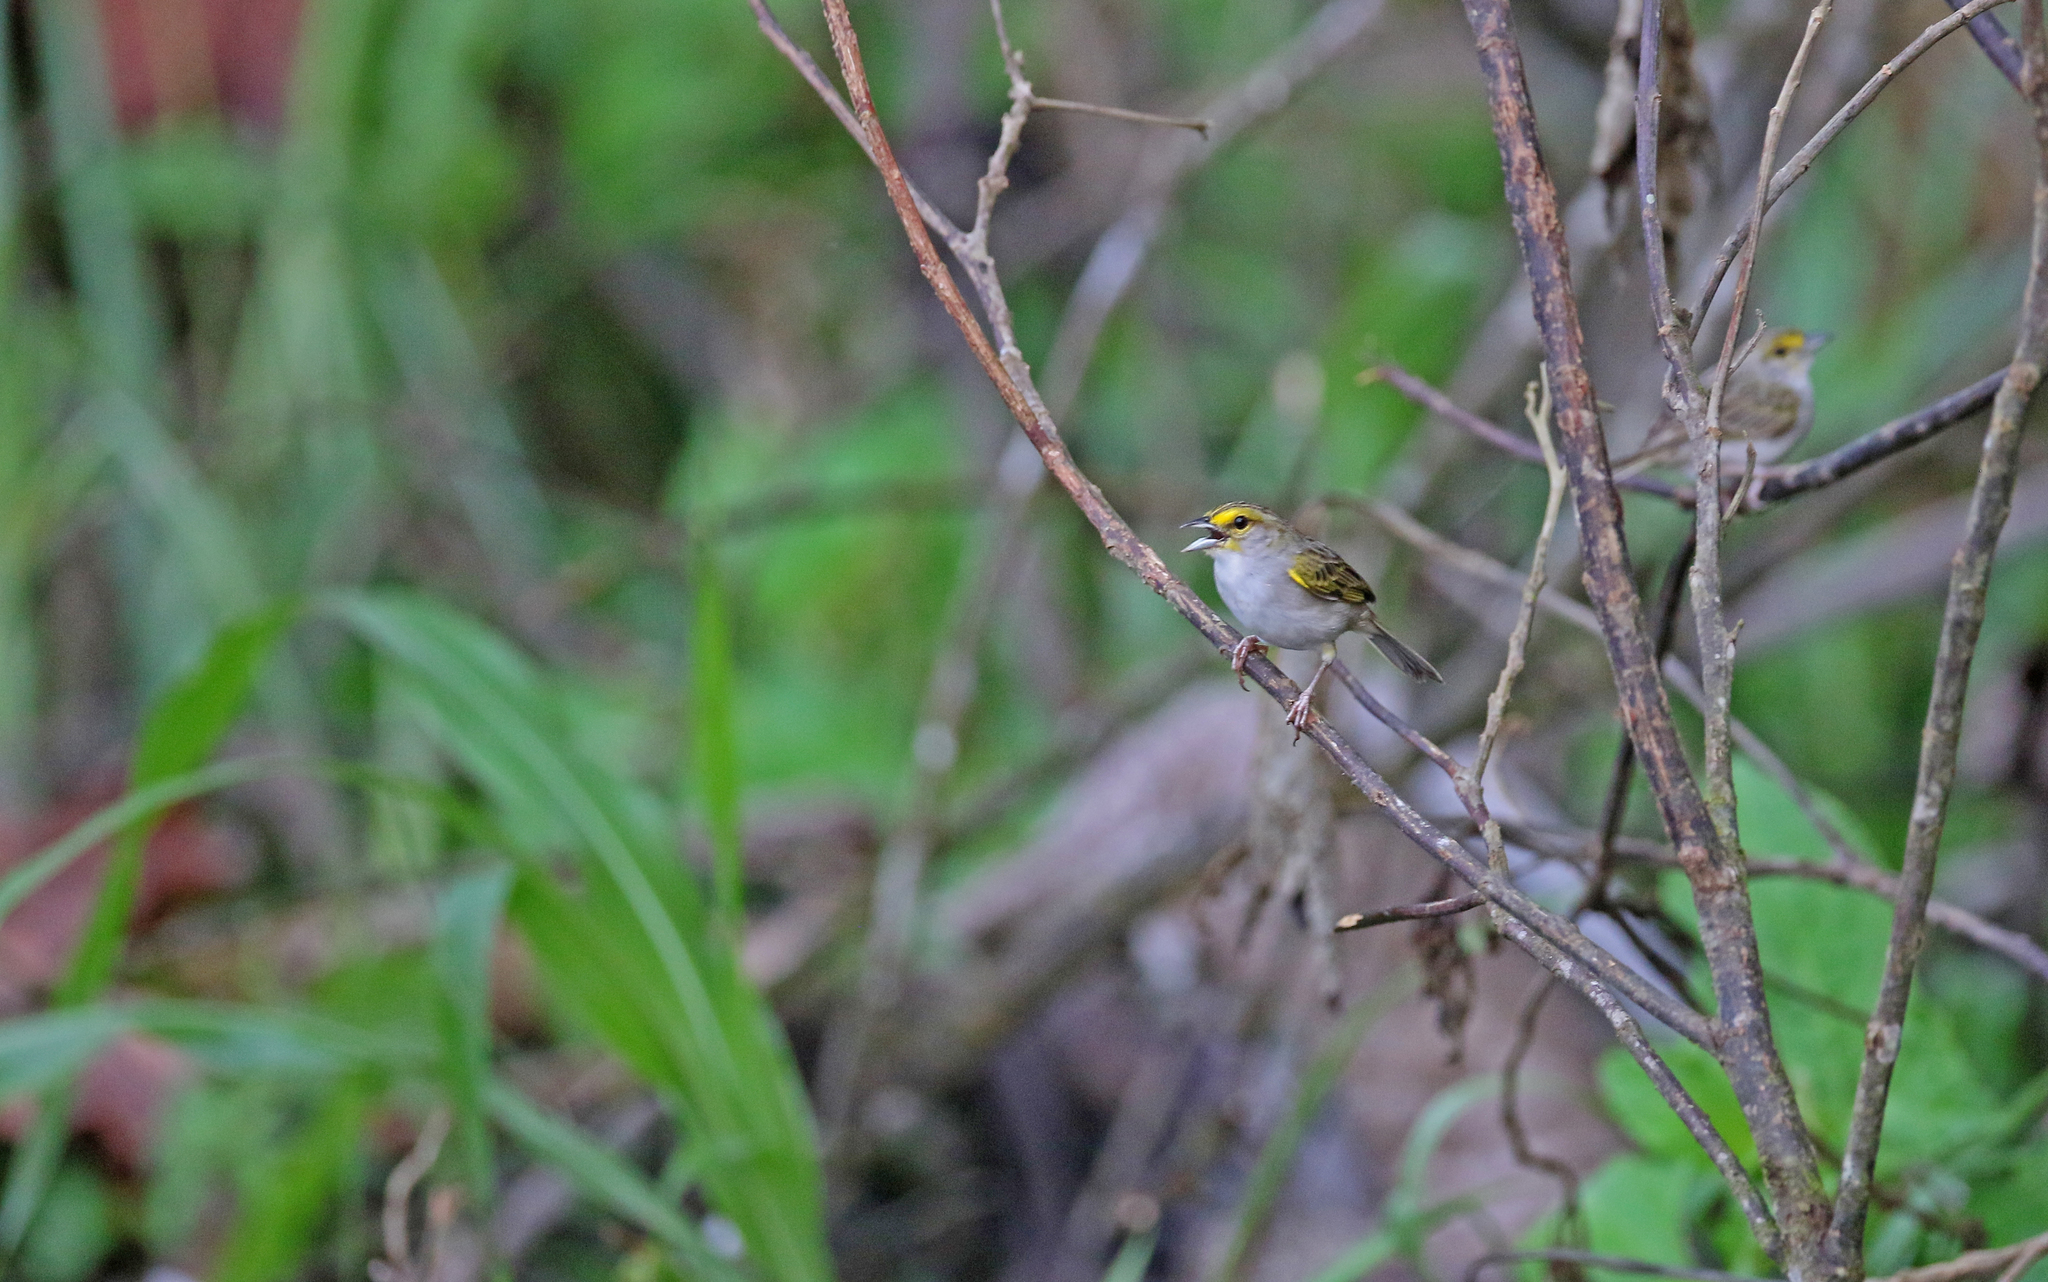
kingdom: Animalia
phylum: Chordata
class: Aves
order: Passeriformes
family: Passerellidae
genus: Ammodramus
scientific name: Ammodramus aurifrons
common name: Yellow-browed sparrow
